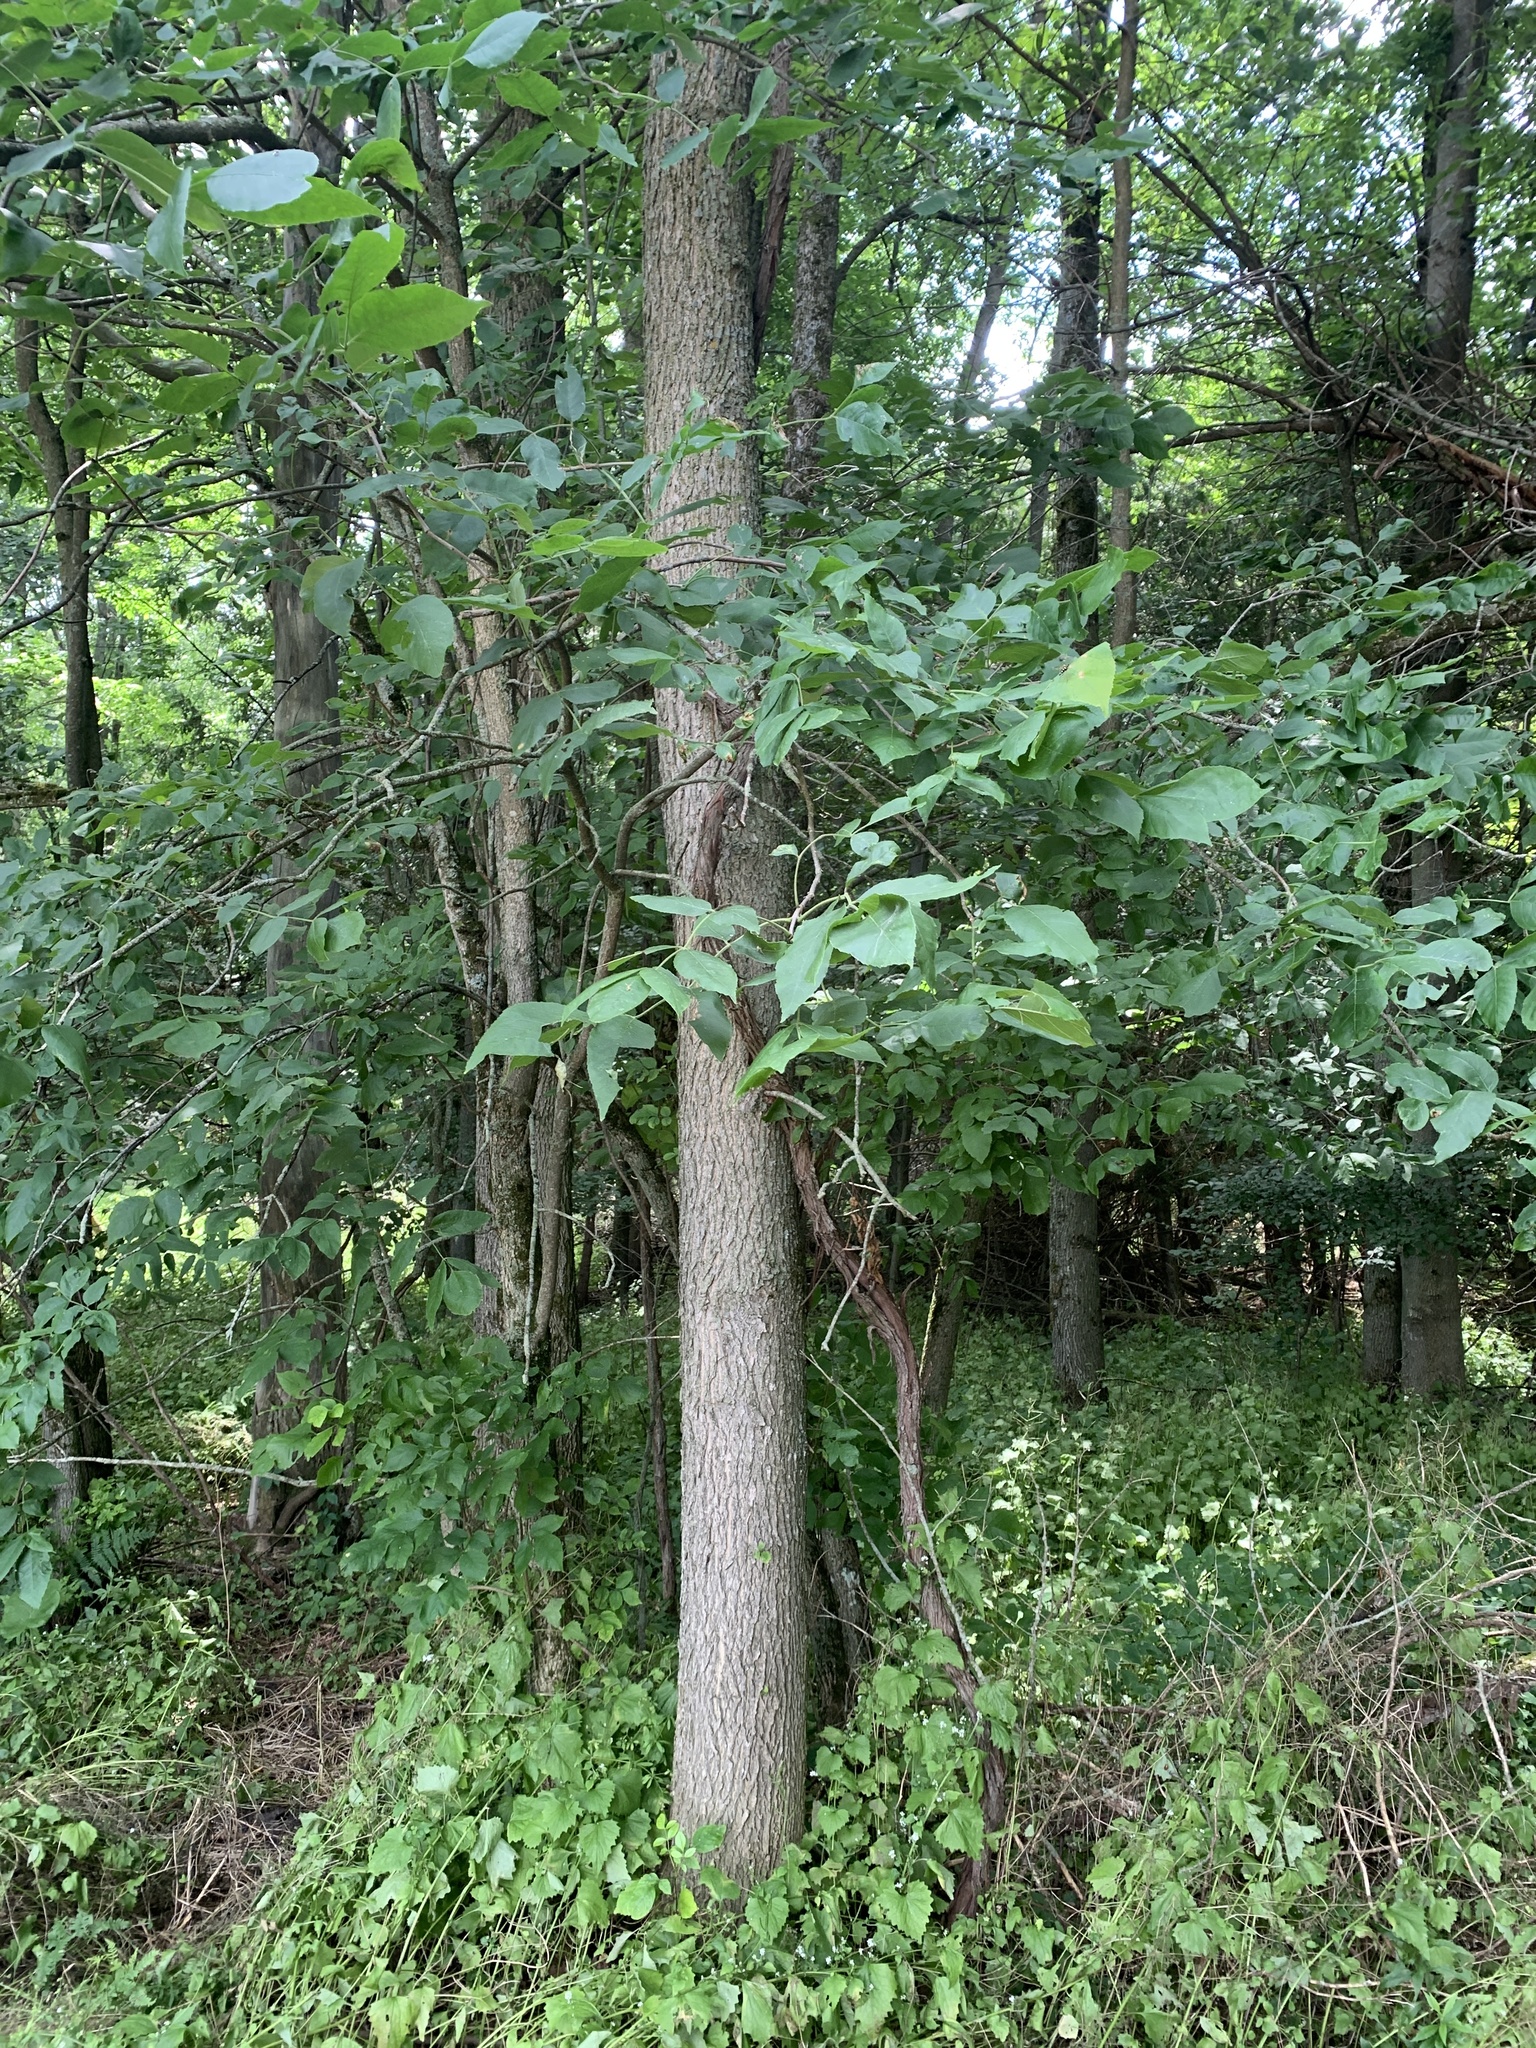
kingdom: Plantae
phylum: Tracheophyta
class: Magnoliopsida
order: Brassicales
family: Brassicaceae
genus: Alliaria
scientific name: Alliaria petiolata
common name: Garlic mustard
